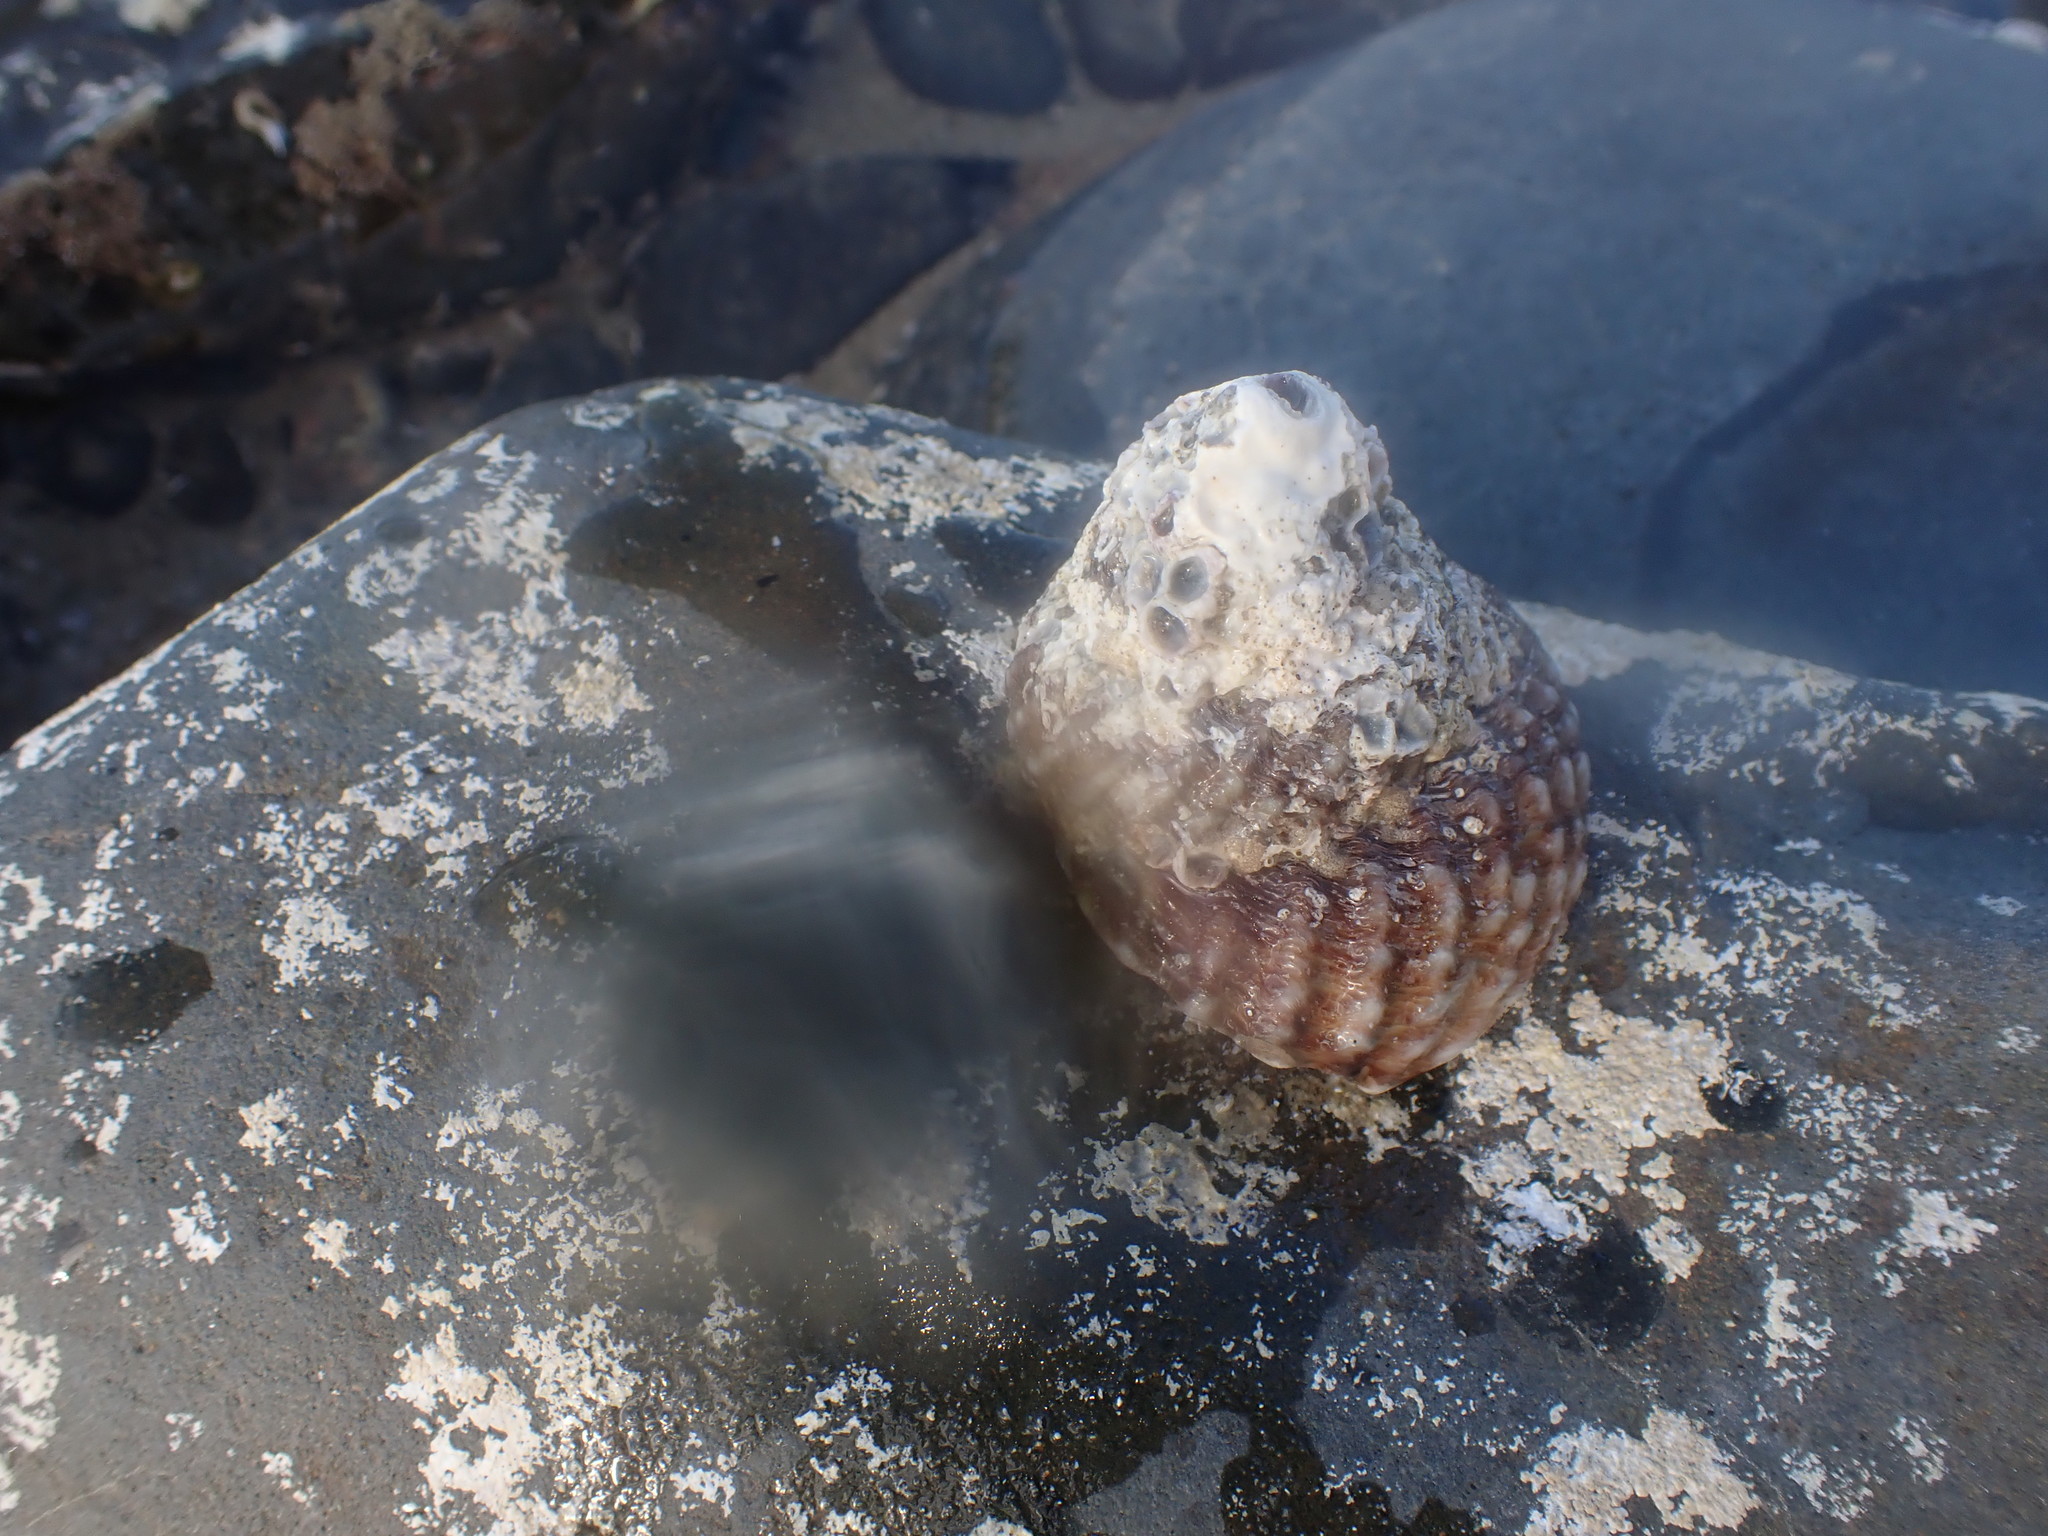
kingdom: Animalia
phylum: Mollusca
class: Gastropoda
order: Trochida
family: Turbinidae
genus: Cookia
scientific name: Cookia sulcata
